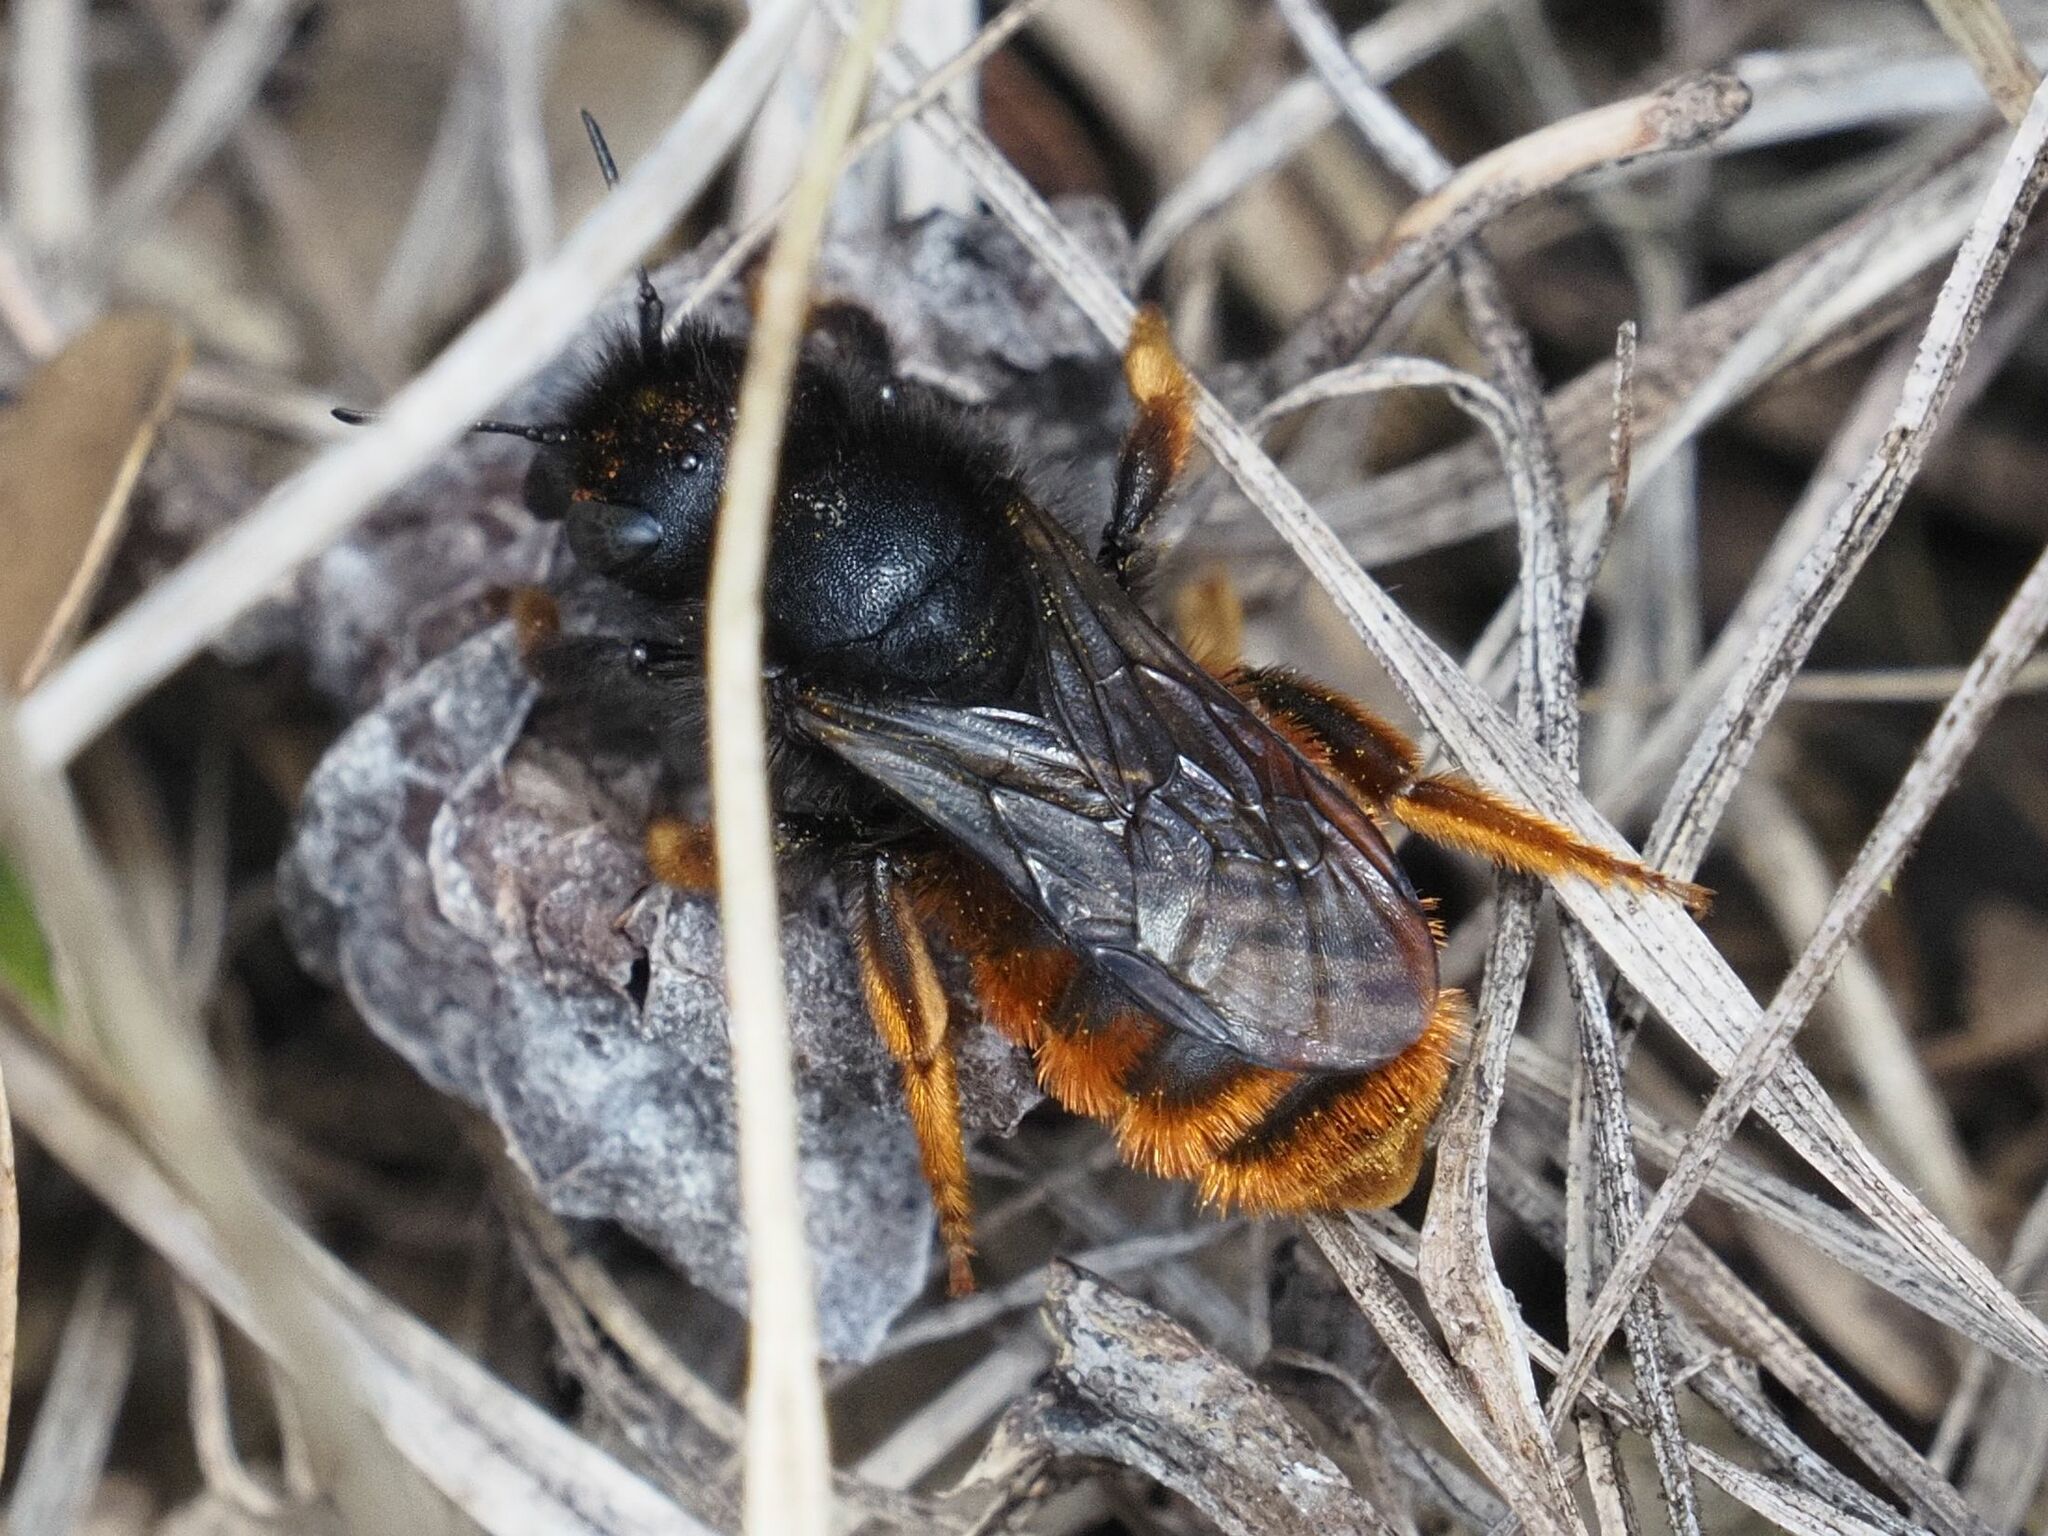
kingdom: Animalia
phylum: Arthropoda
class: Insecta
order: Hymenoptera
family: Megachilidae
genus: Osmia
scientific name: Osmia bicolor
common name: Red-tailed mason bee
